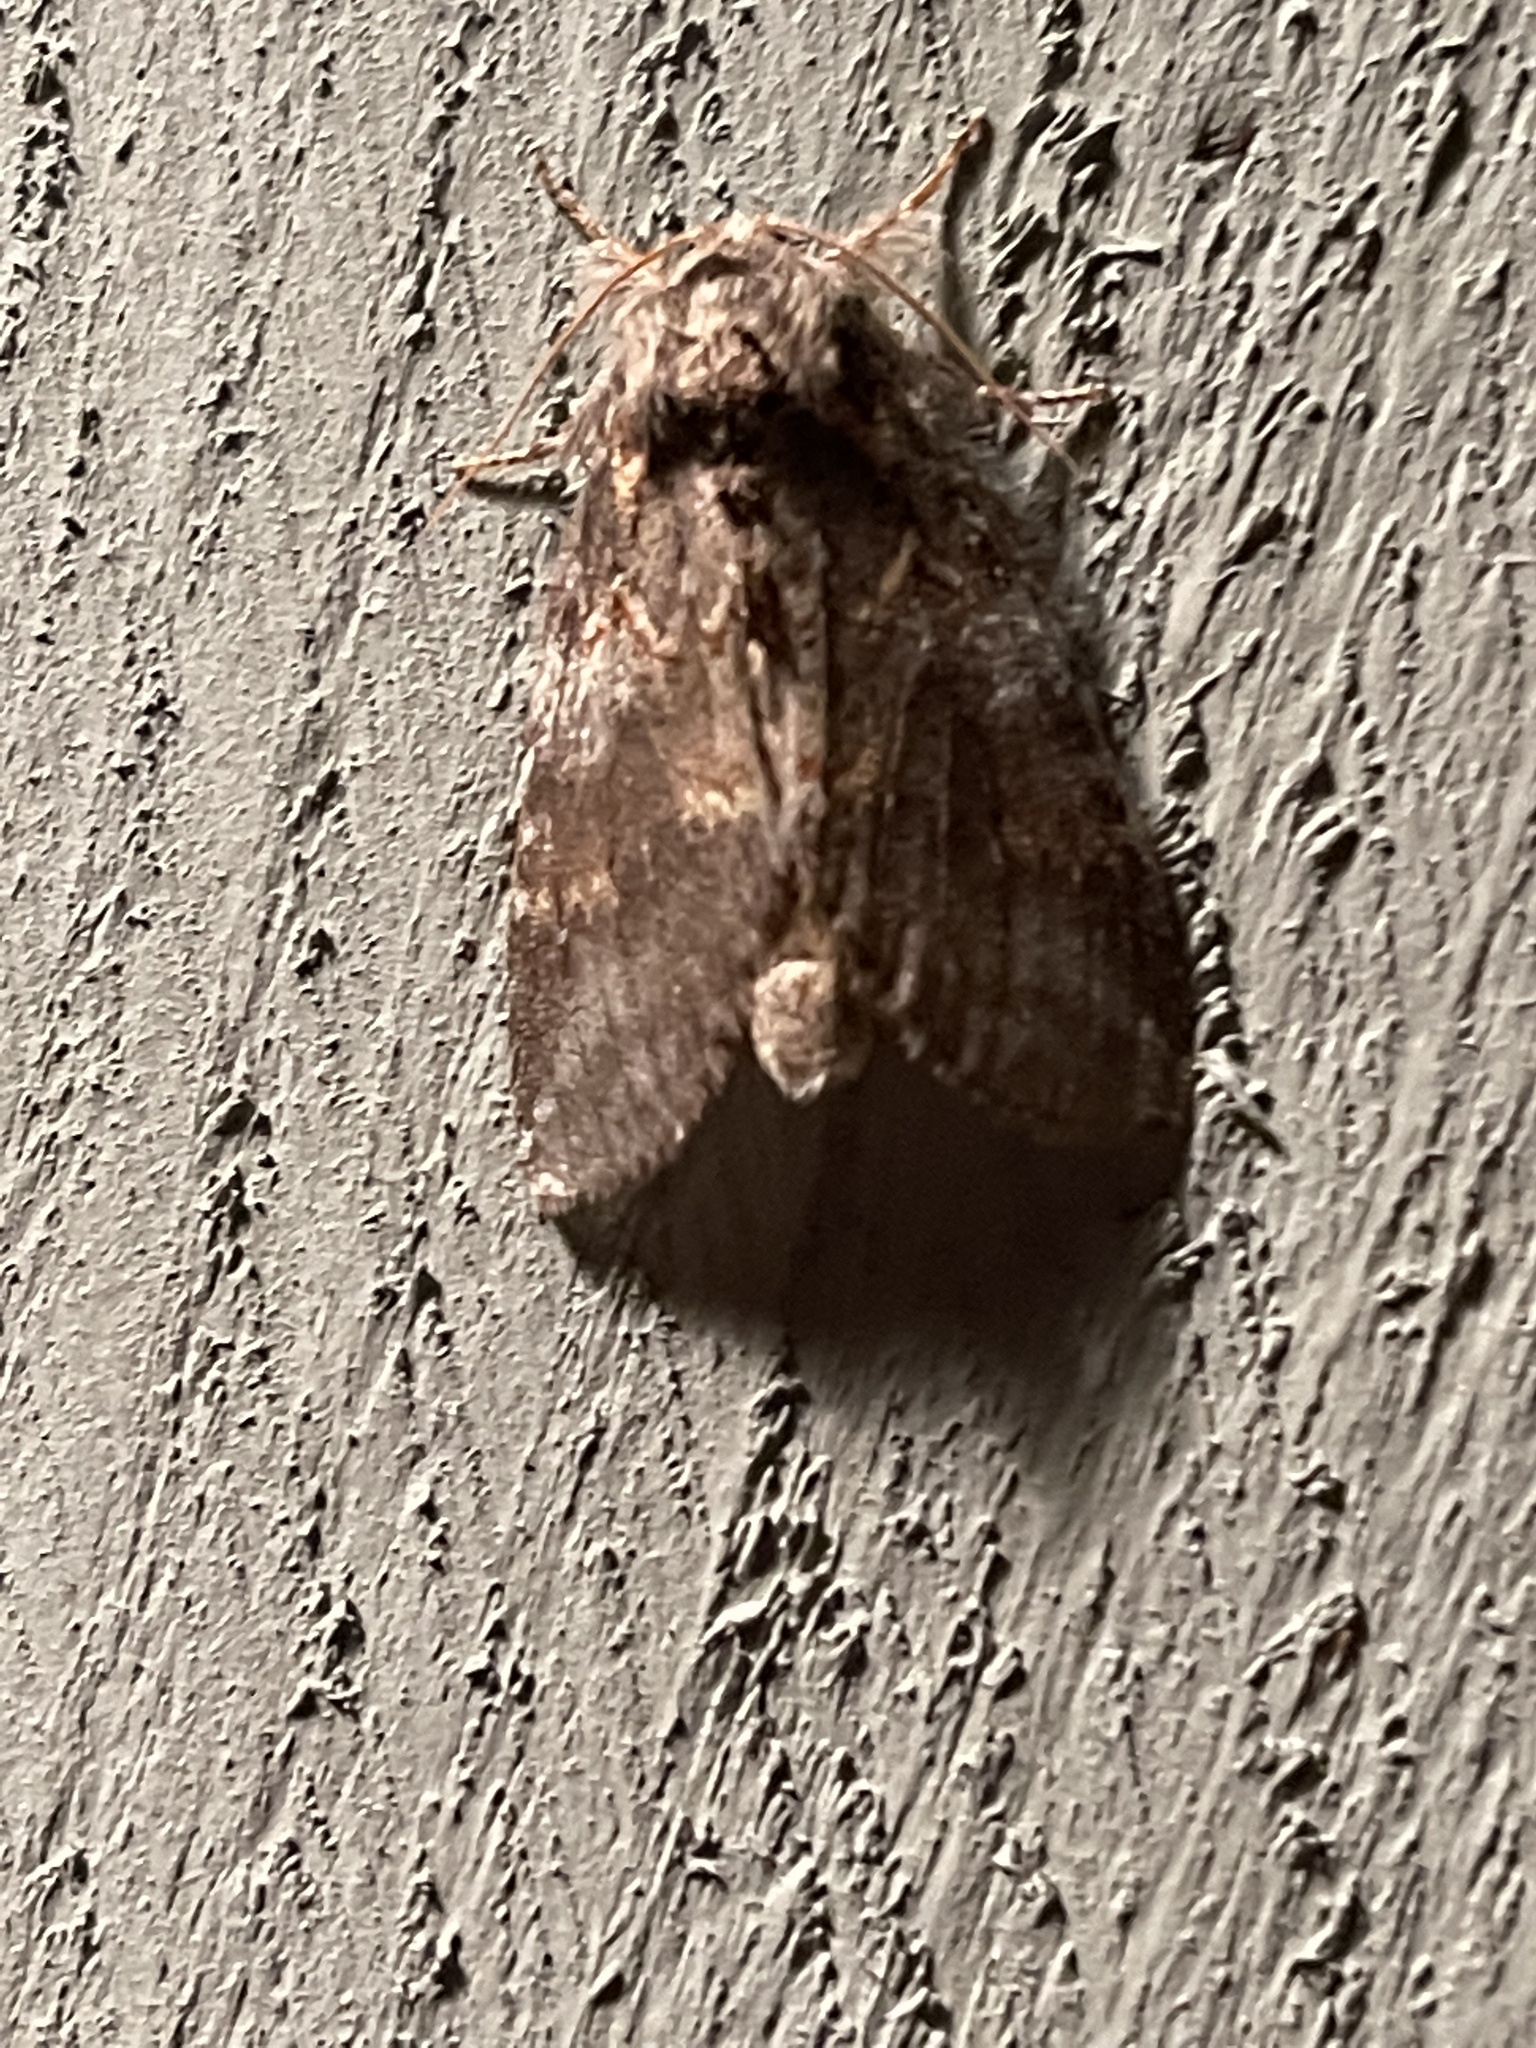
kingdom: Animalia
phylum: Arthropoda
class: Insecta
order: Lepidoptera
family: Notodontidae
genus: Peridea
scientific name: Peridea angulosa
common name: Angulose prominent
